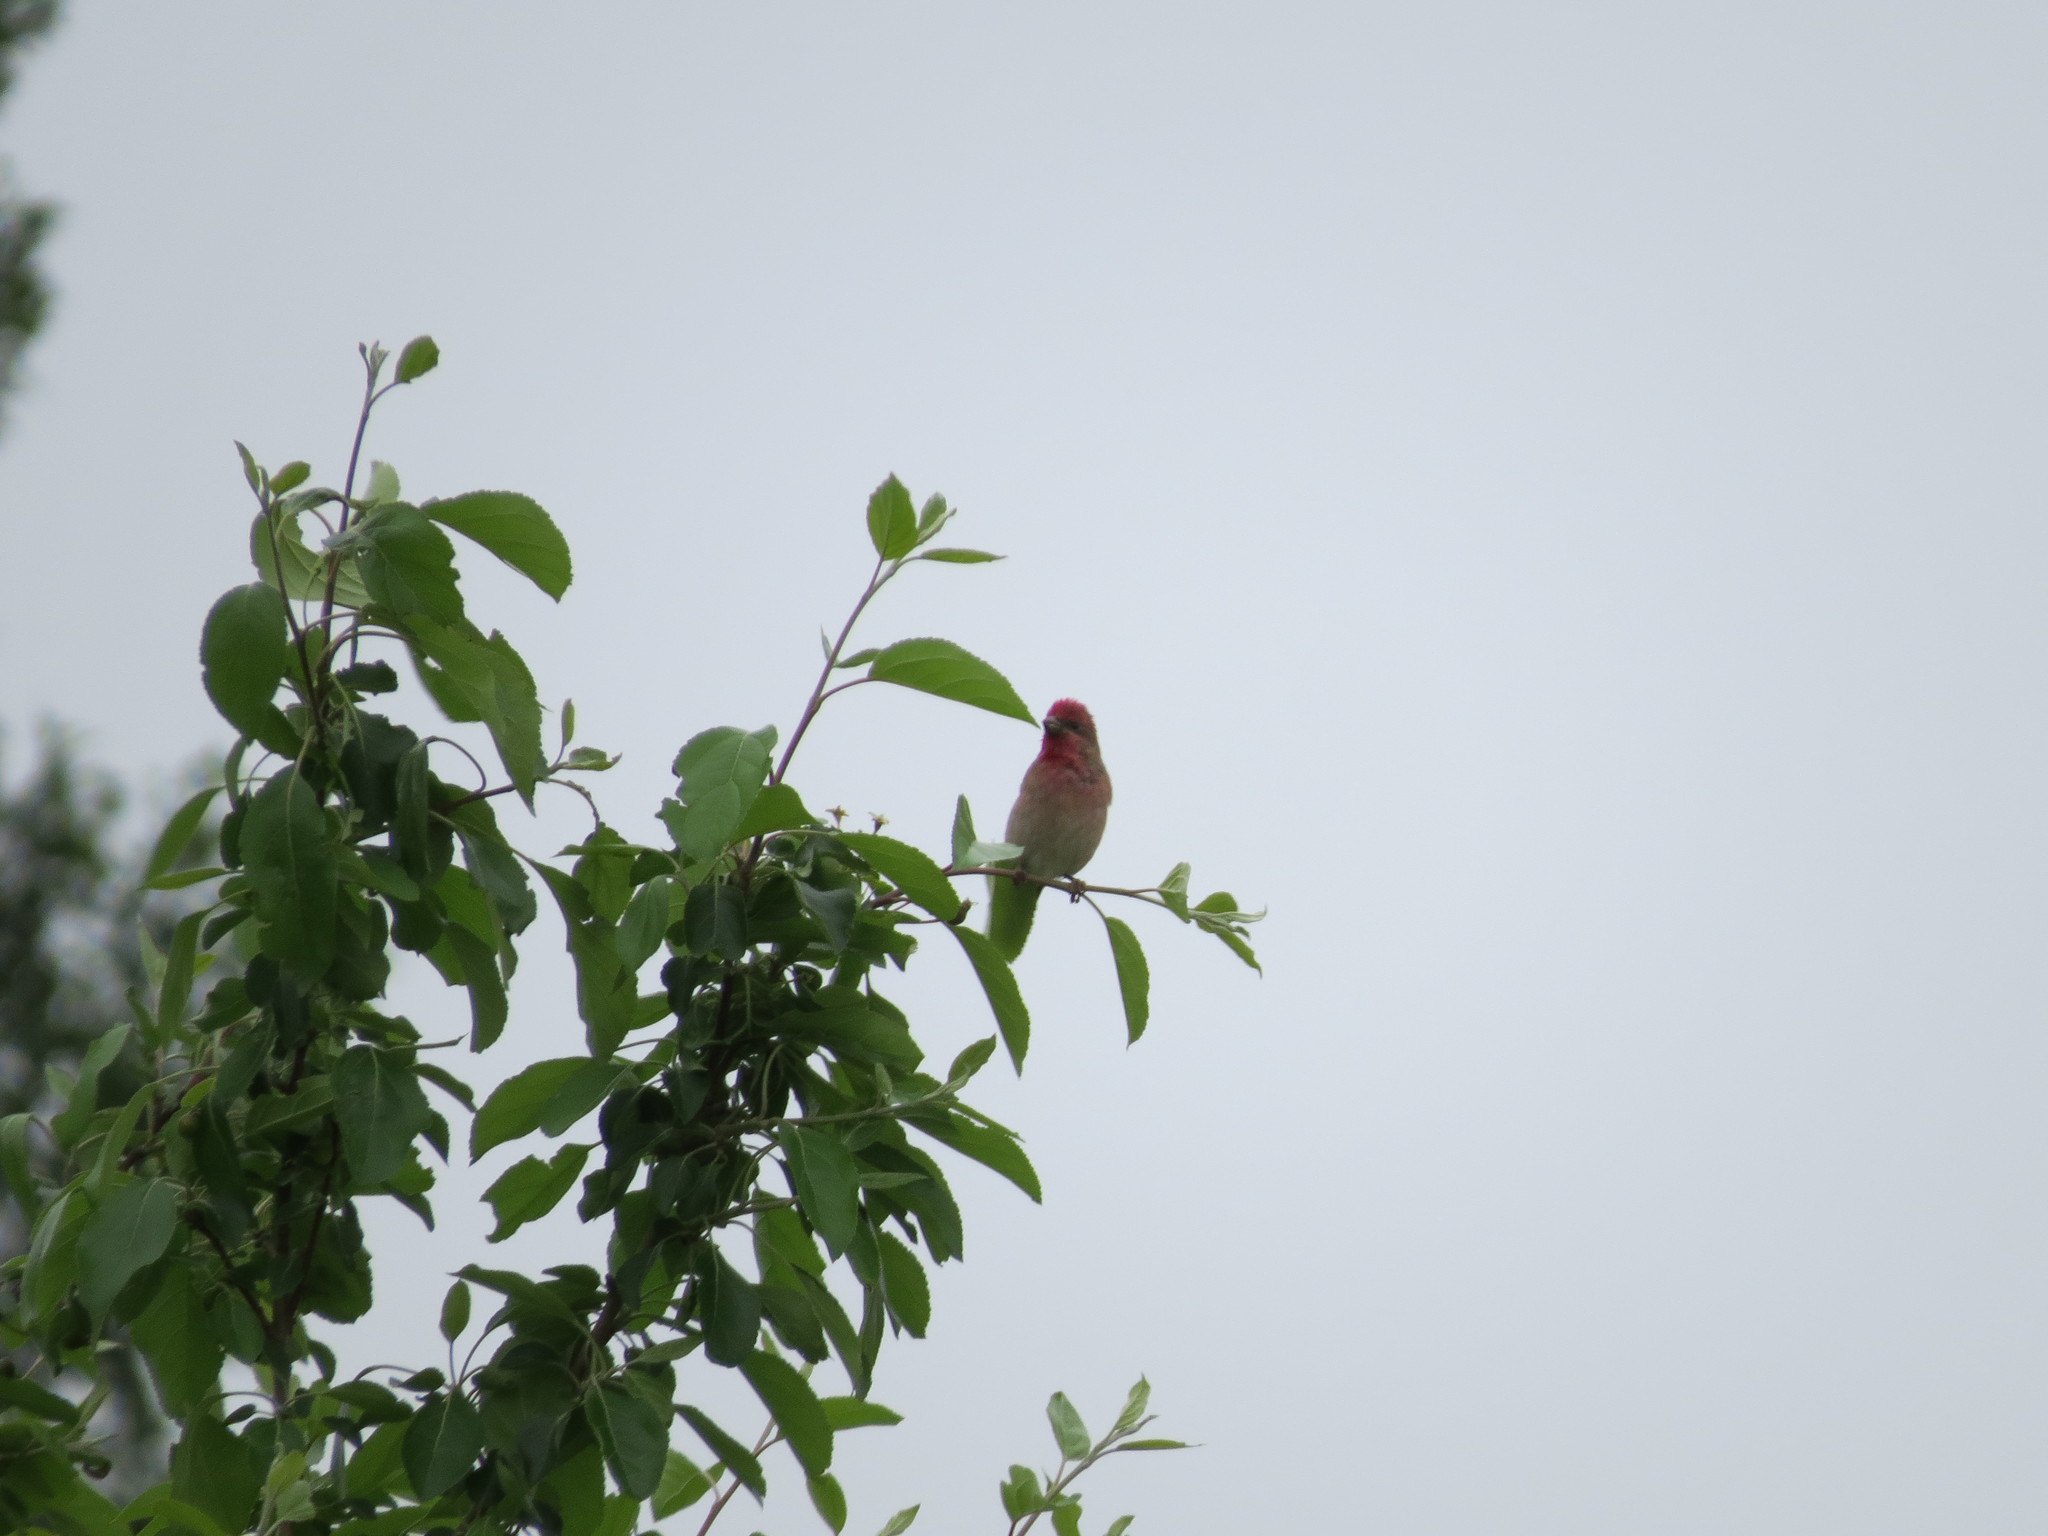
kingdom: Animalia
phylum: Chordata
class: Aves
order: Passeriformes
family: Fringillidae
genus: Carpodacus
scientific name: Carpodacus erythrinus
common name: Common rosefinch
